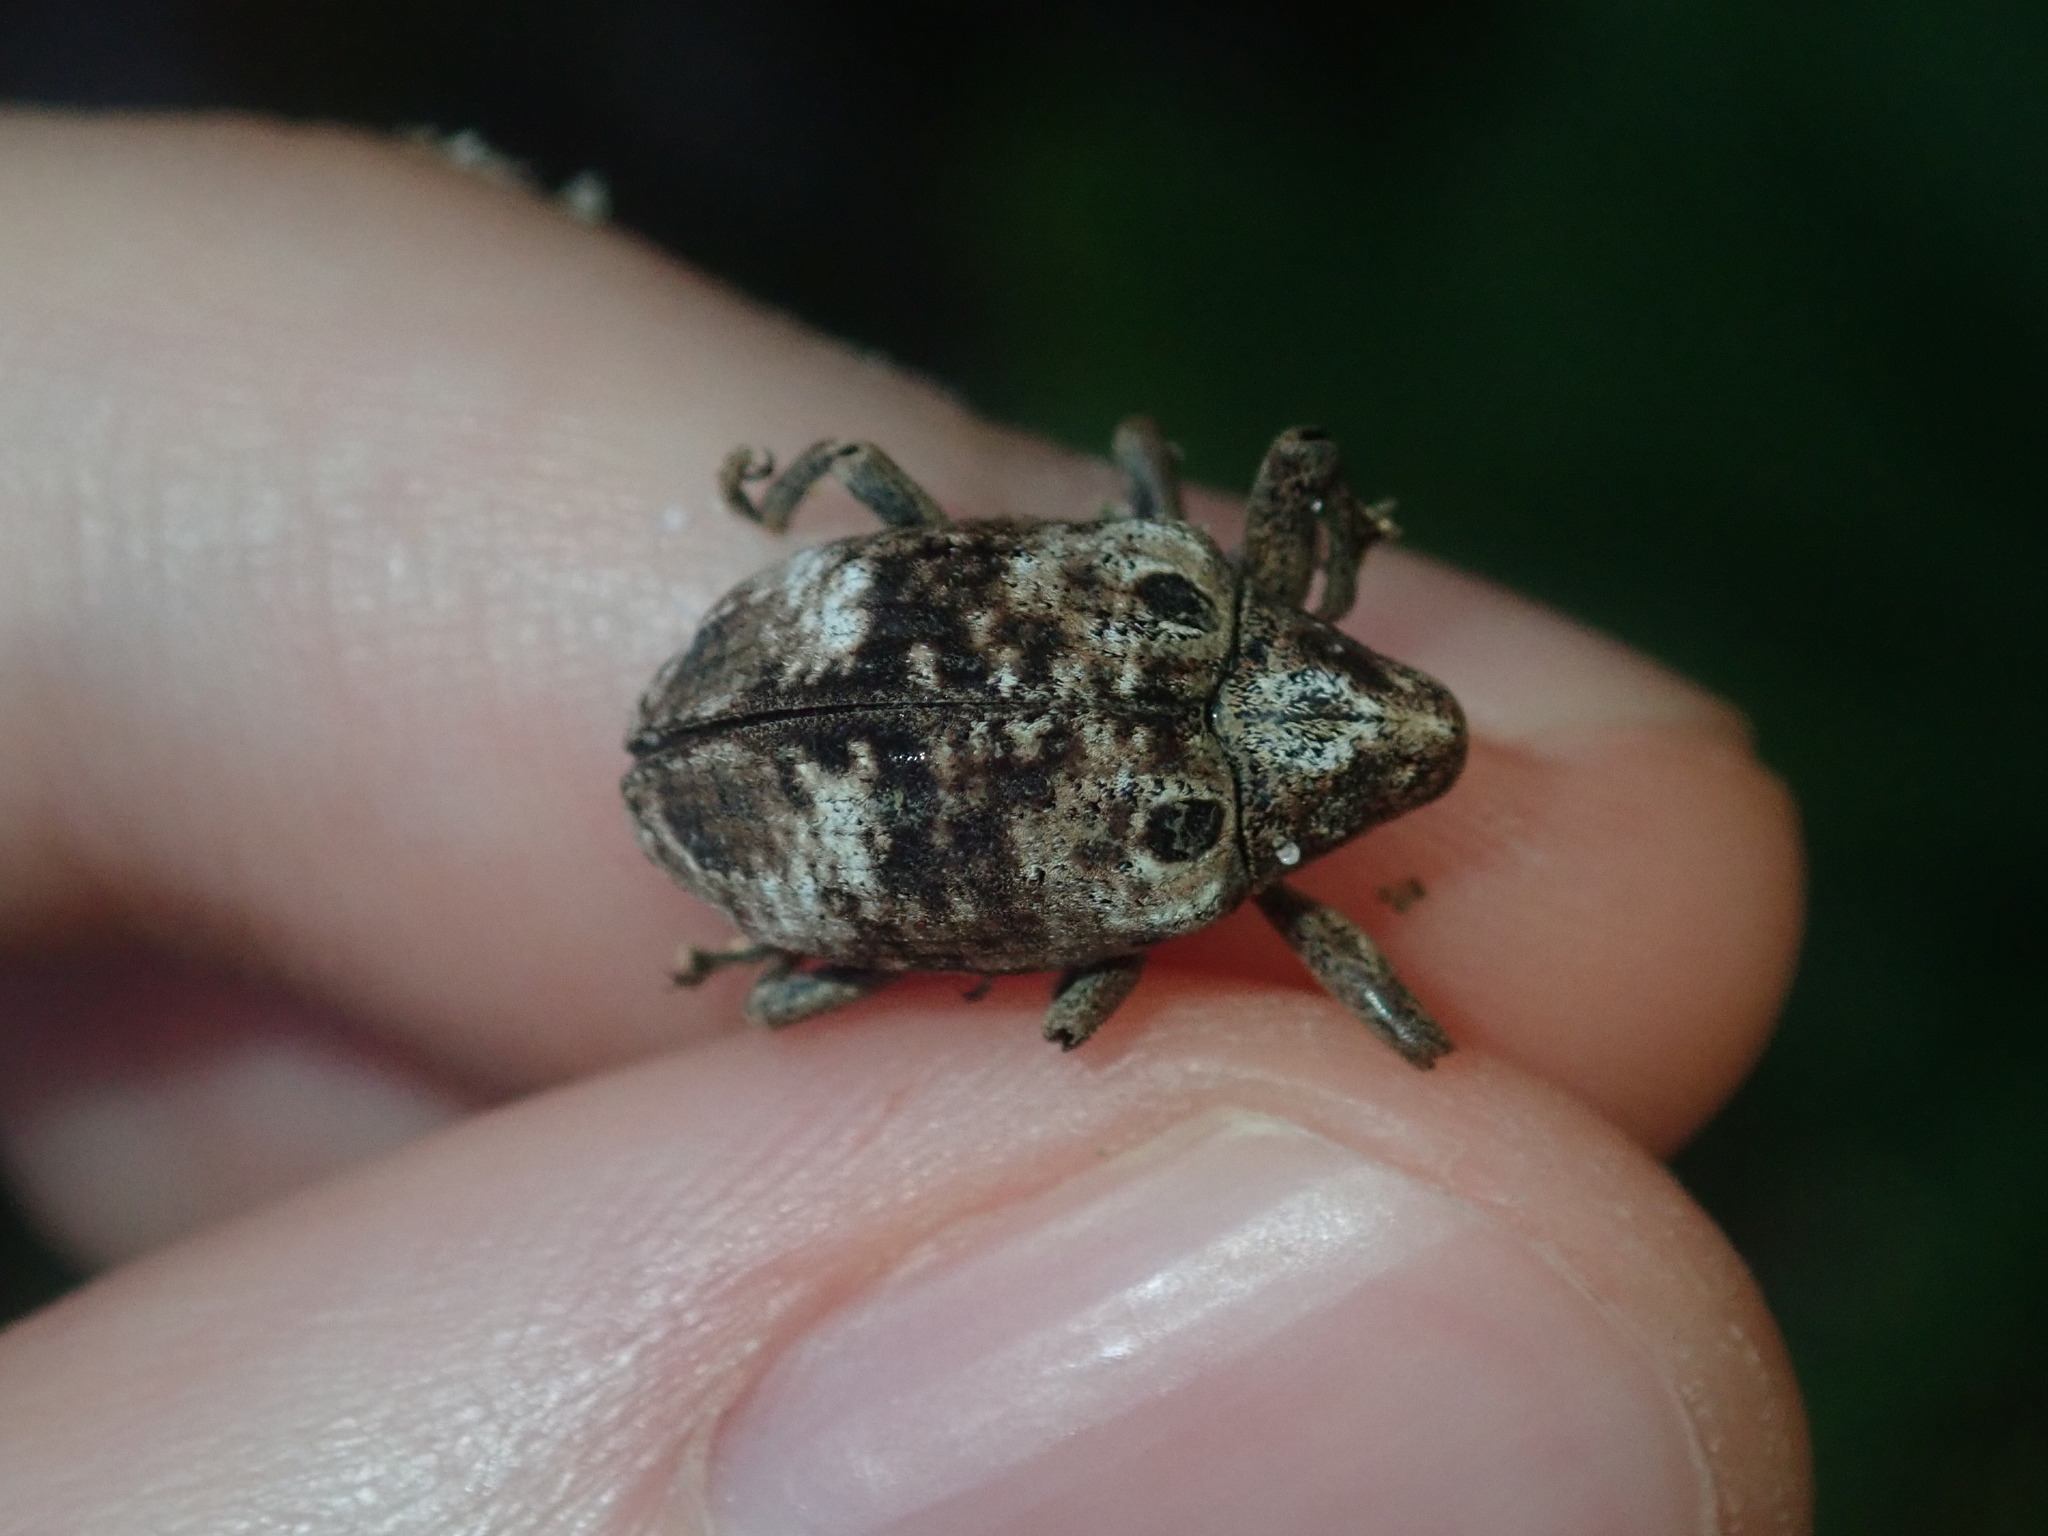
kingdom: Animalia
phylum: Arthropoda
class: Insecta
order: Coleoptera
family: Curculionidae
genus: Perissops
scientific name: Perissops ocellatus
